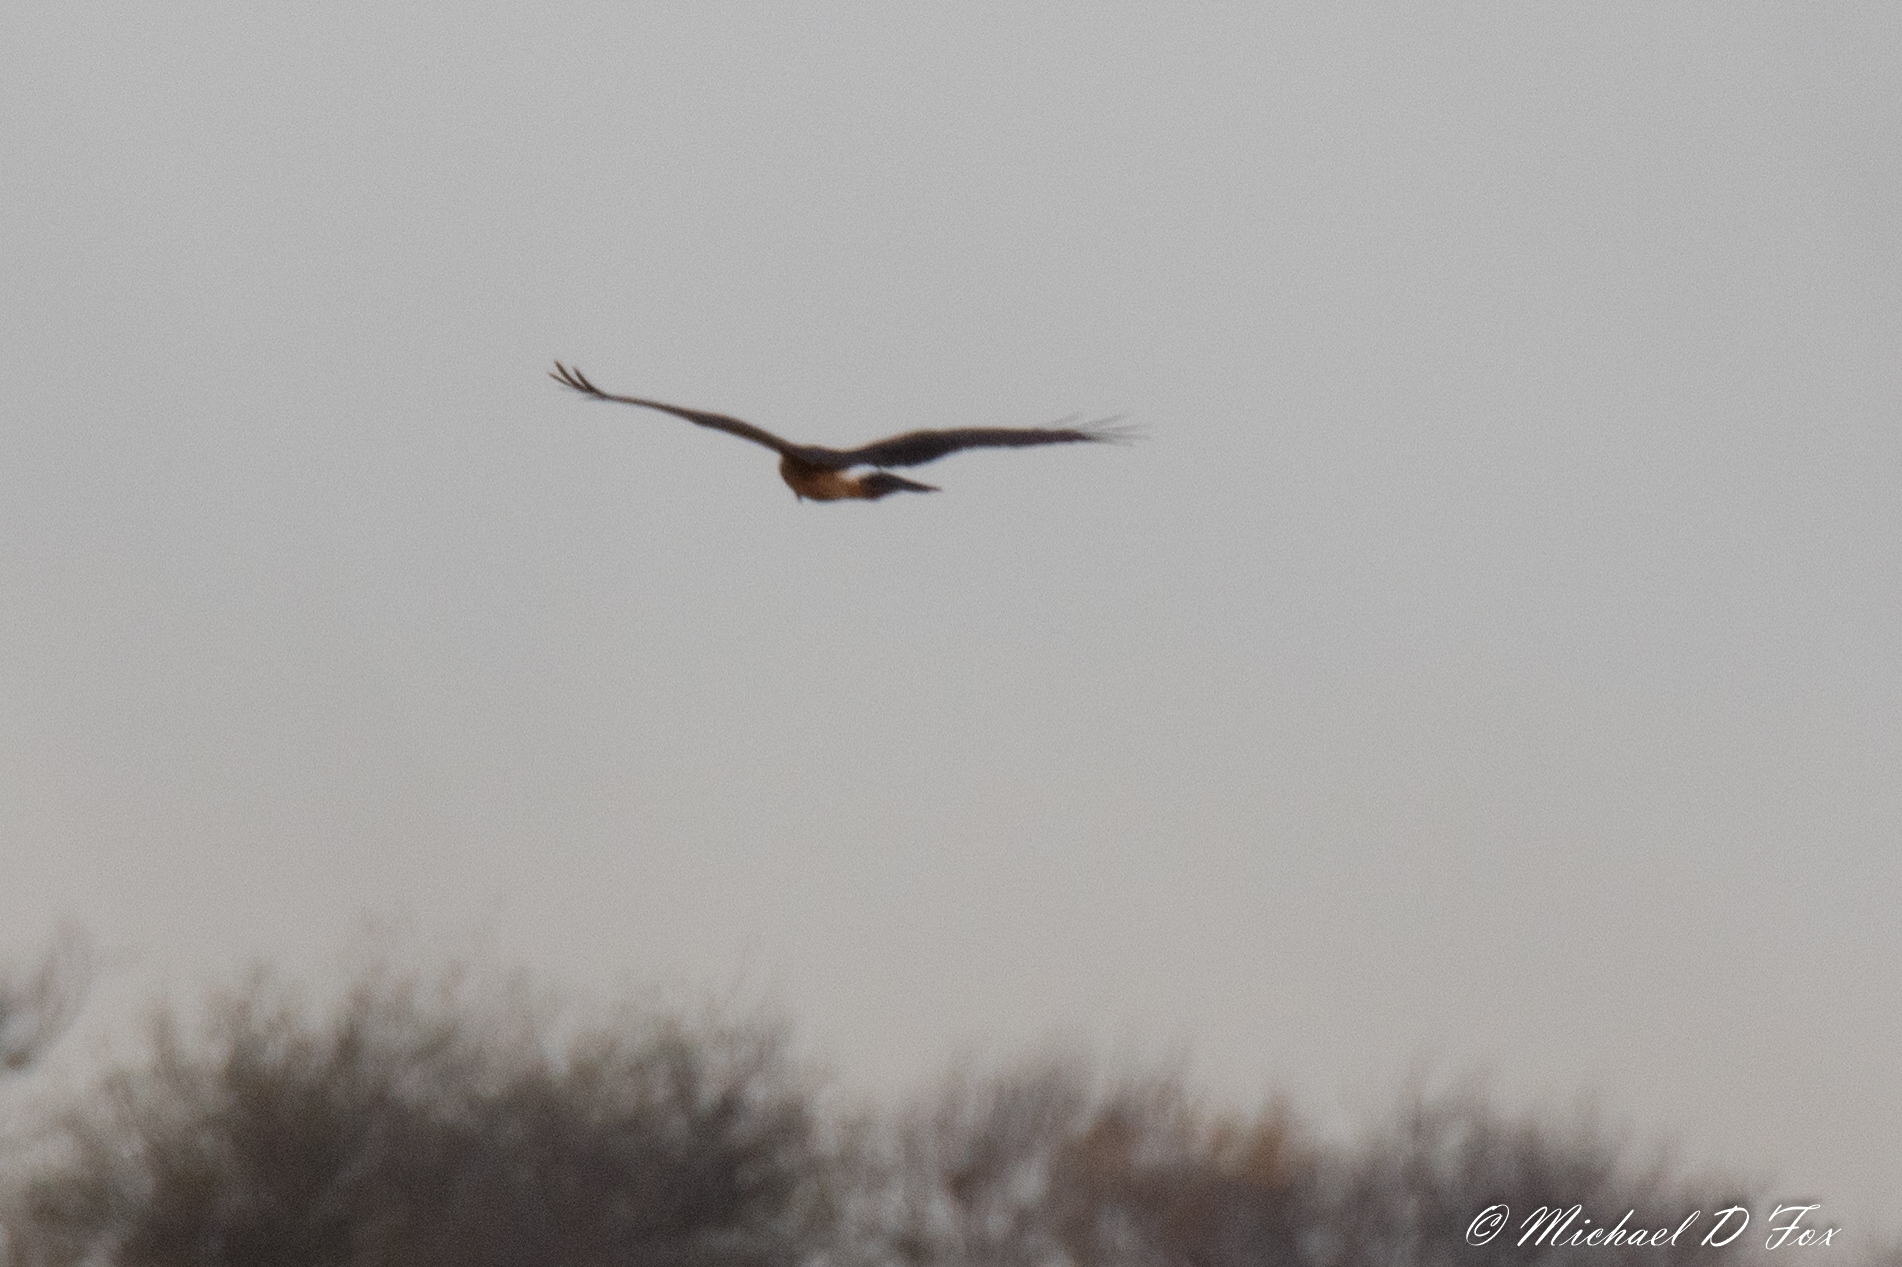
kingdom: Animalia
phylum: Chordata
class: Aves
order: Accipitriformes
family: Accipitridae
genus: Circus
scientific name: Circus cyaneus
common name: Hen harrier
